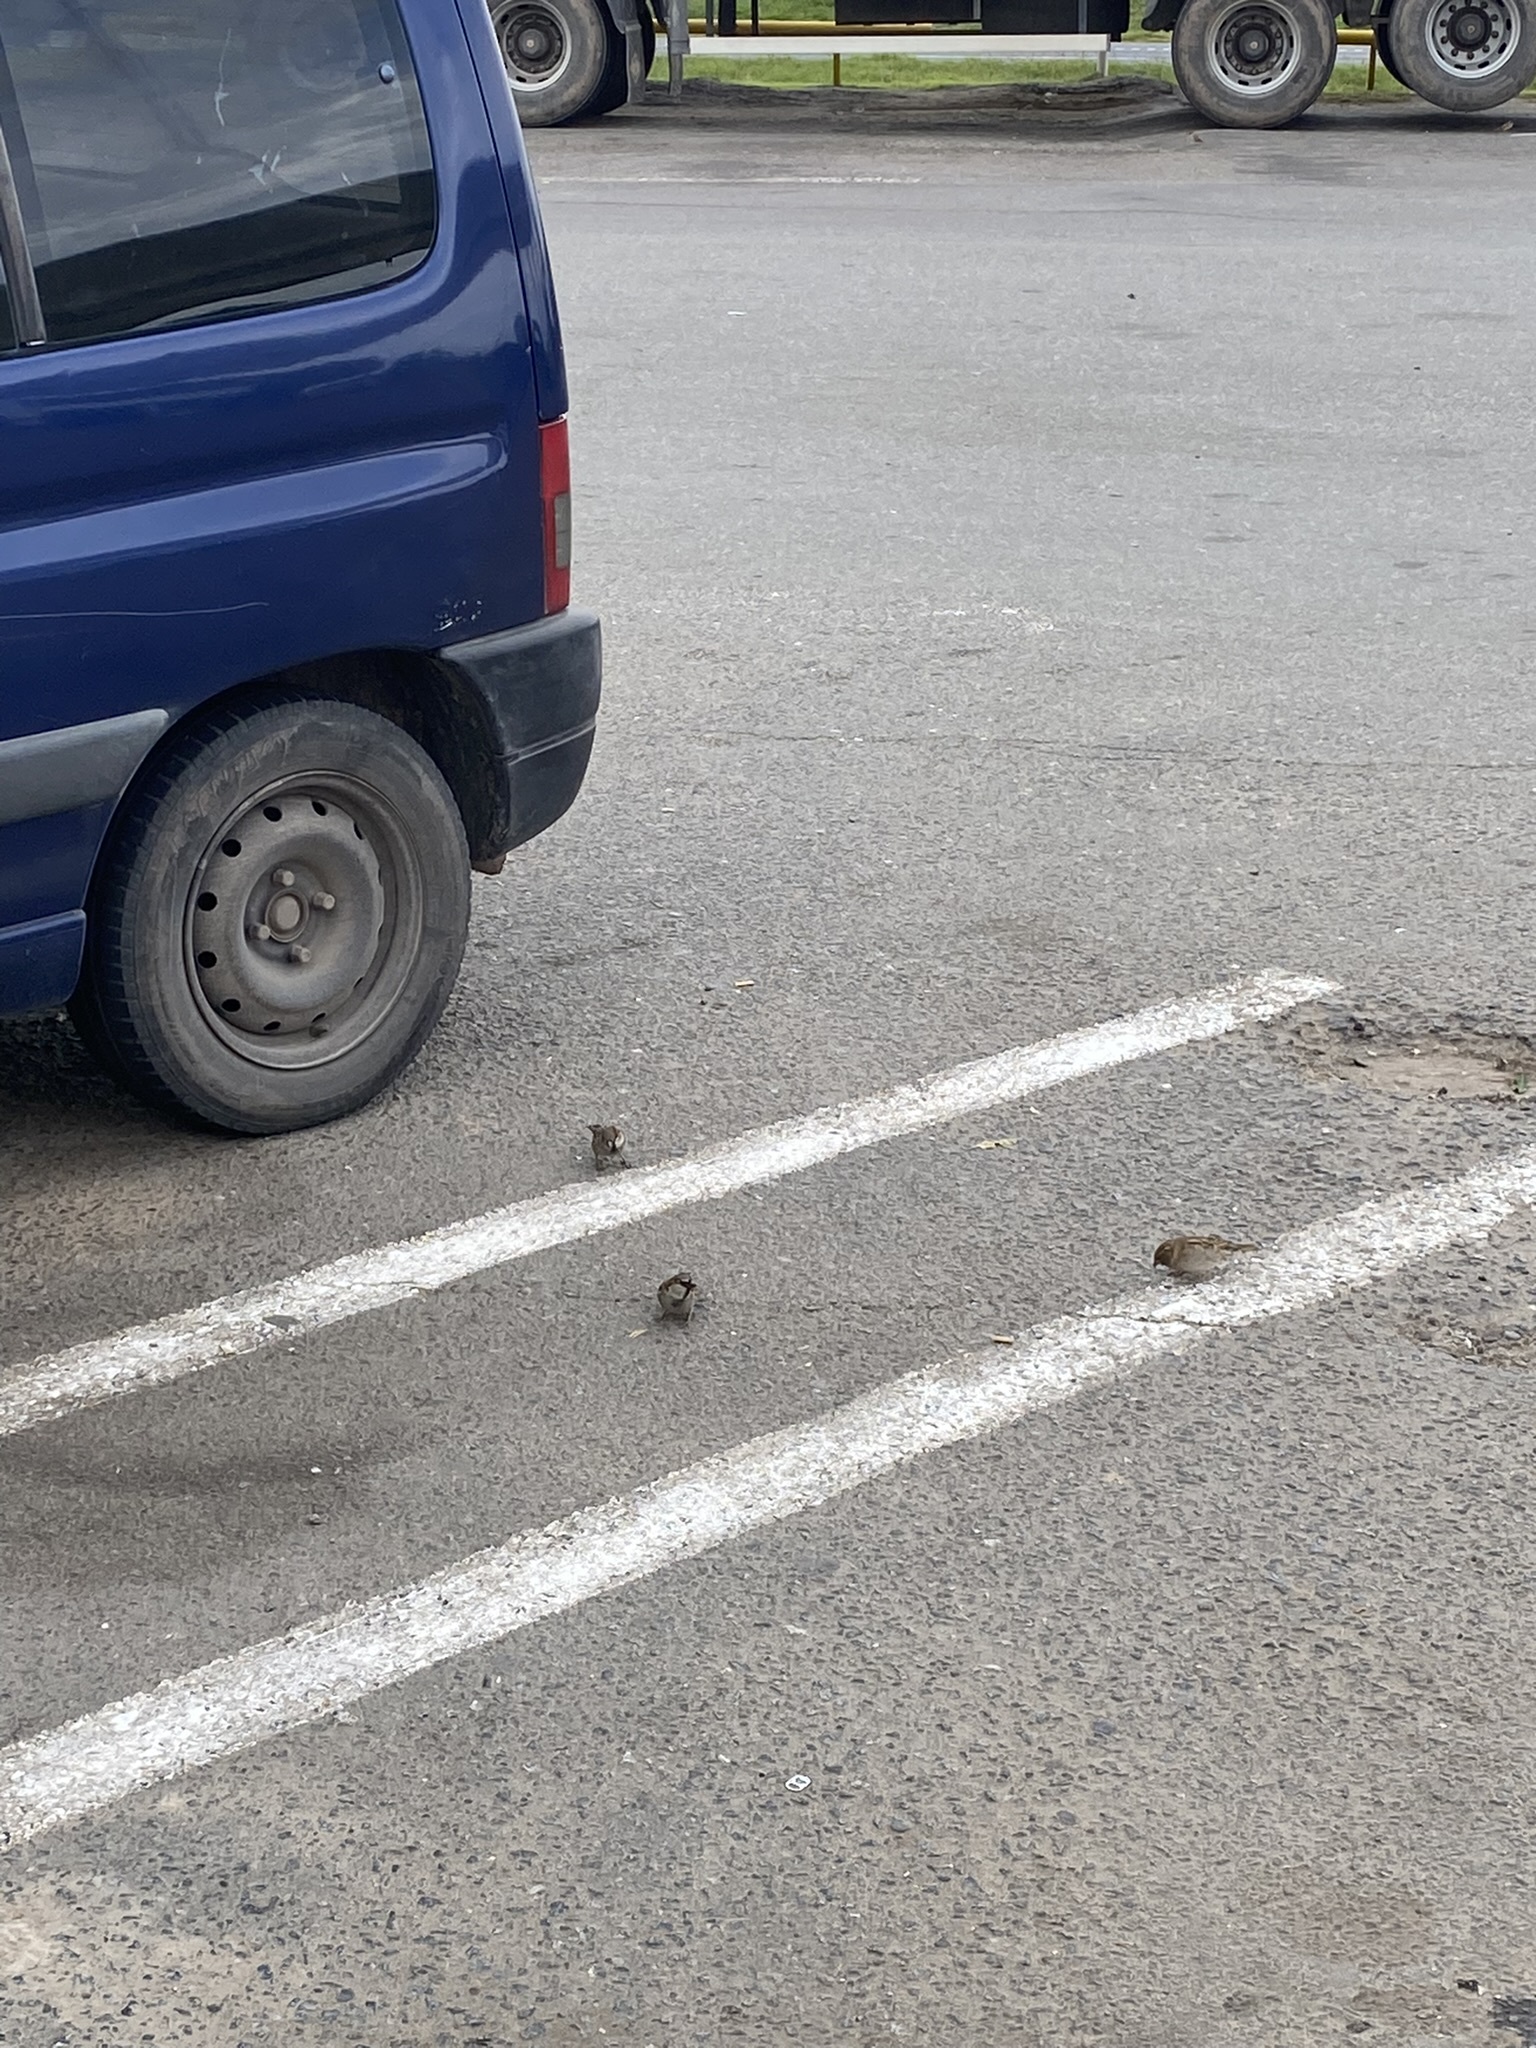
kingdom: Animalia
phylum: Chordata
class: Aves
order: Passeriformes
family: Passeridae
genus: Passer
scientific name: Passer domesticus
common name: House sparrow
